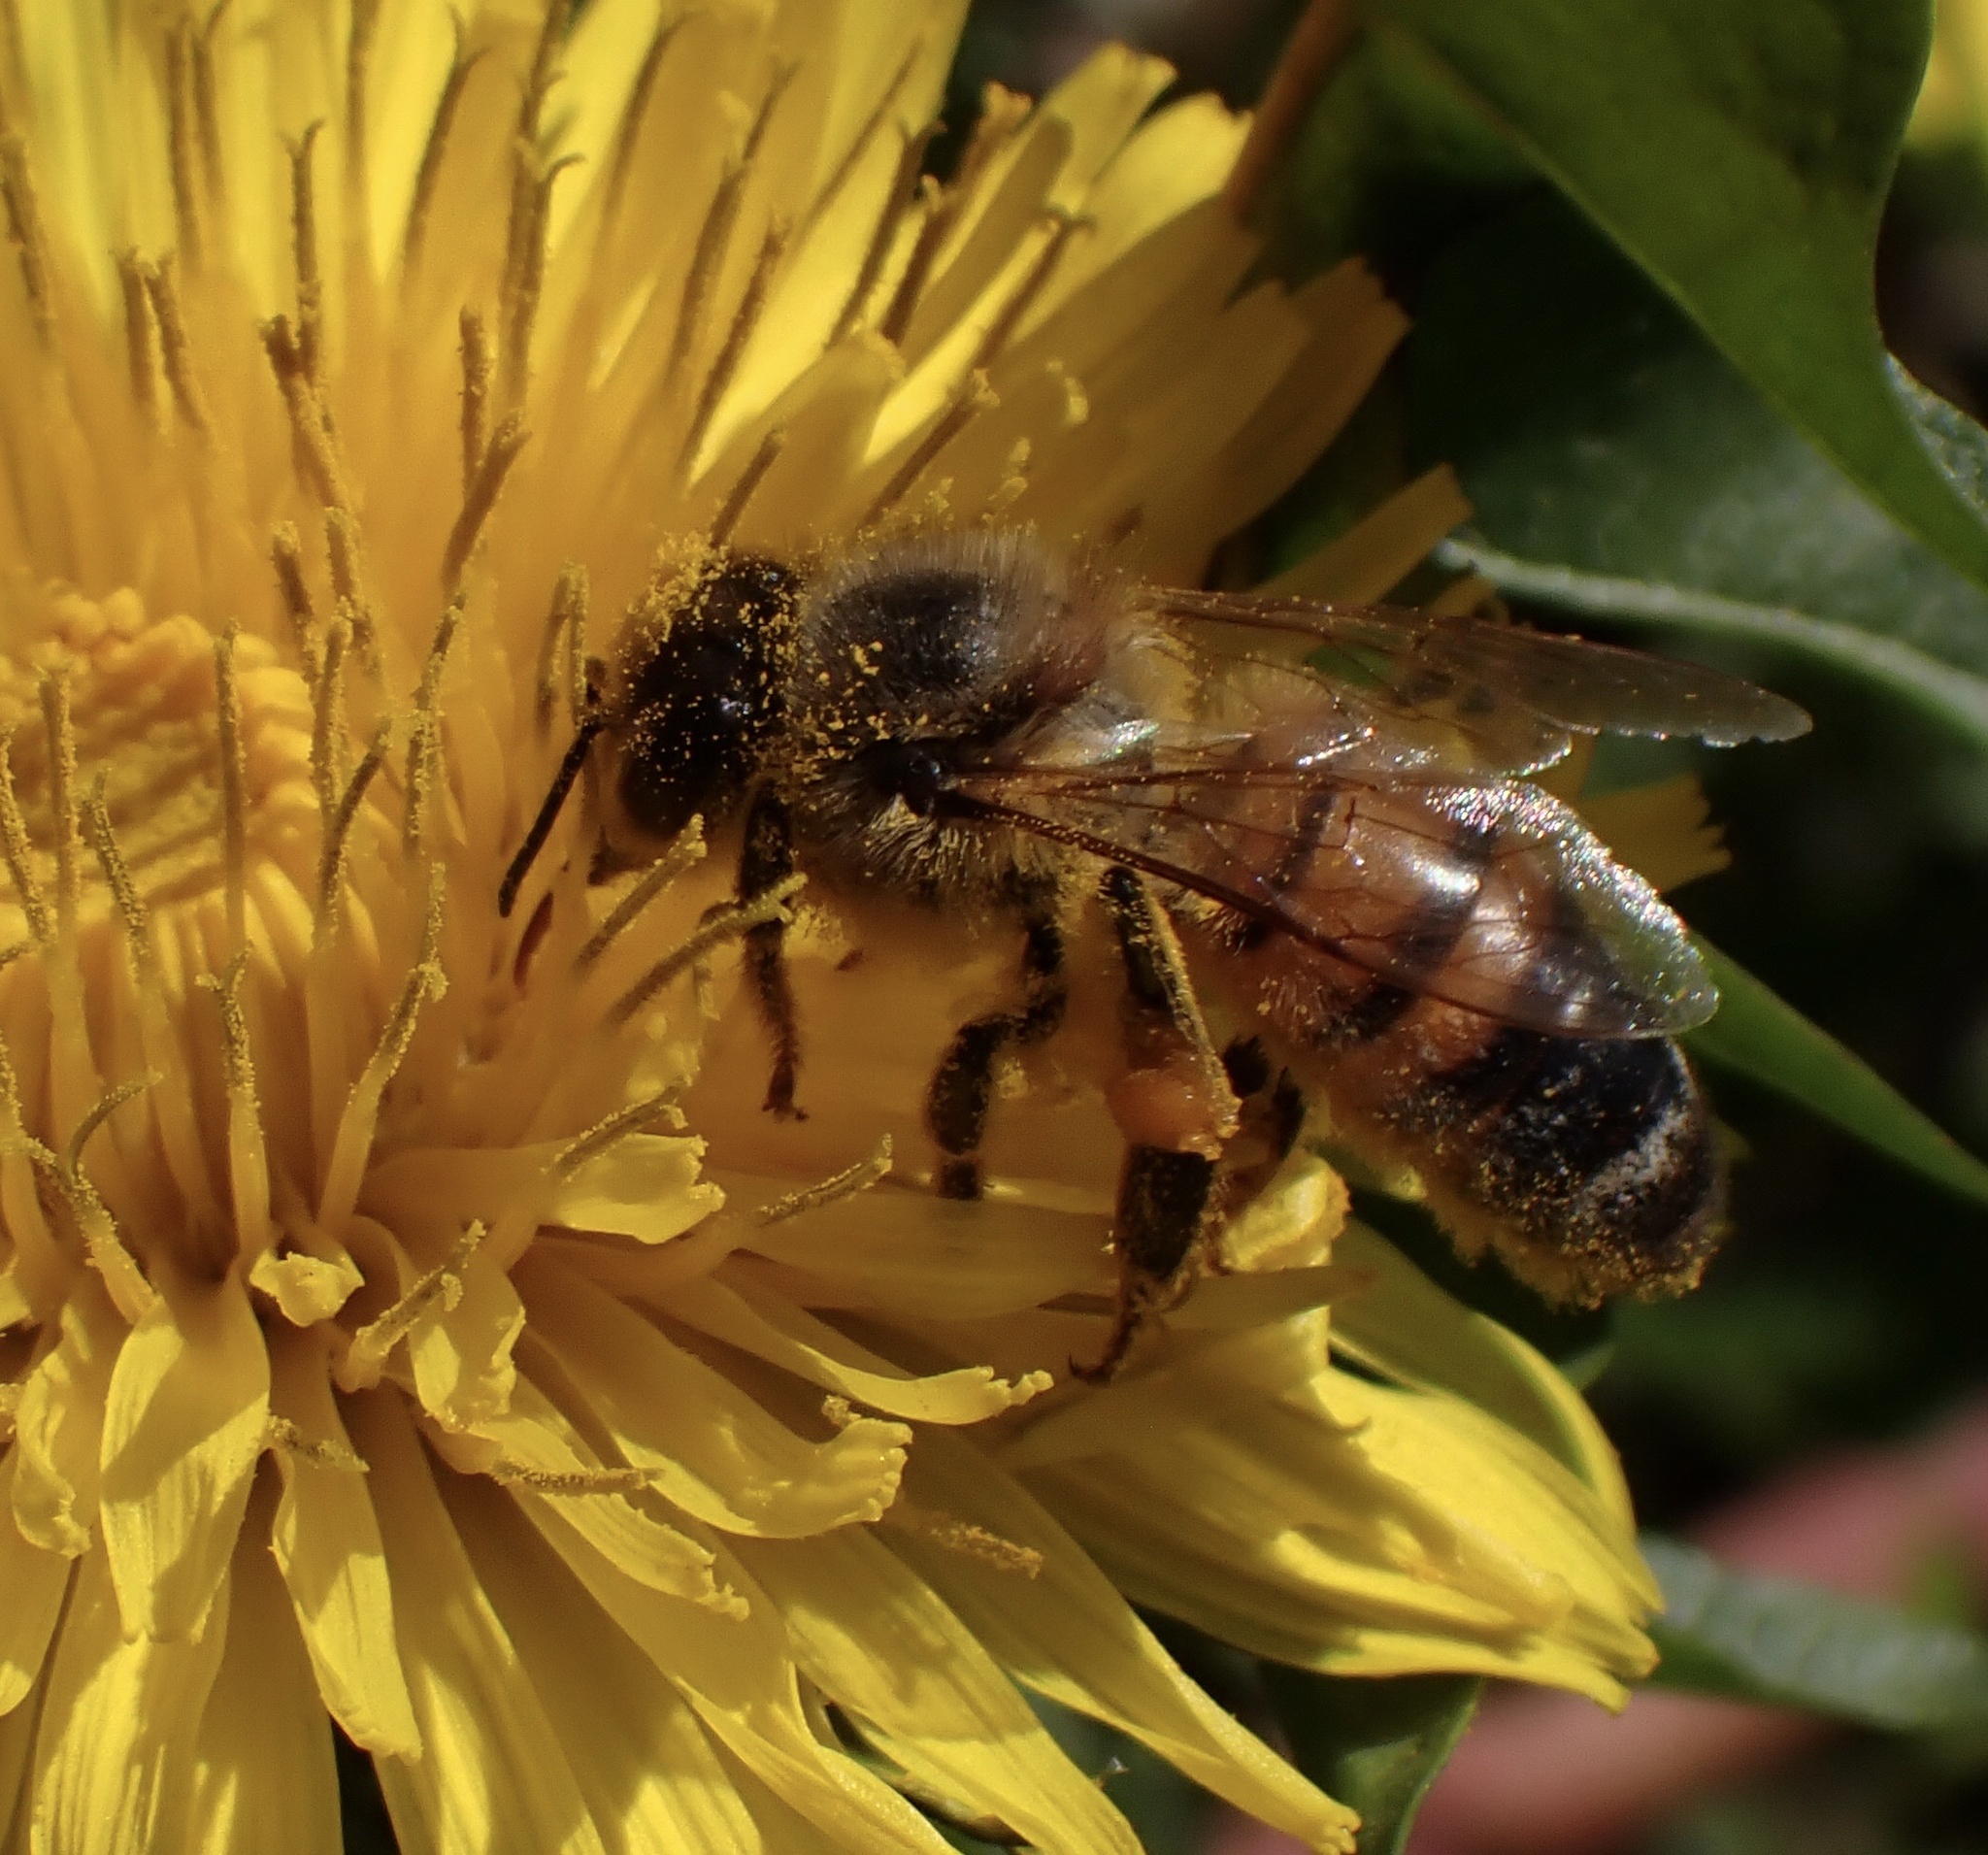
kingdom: Animalia
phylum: Arthropoda
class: Insecta
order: Hymenoptera
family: Apidae
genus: Apis
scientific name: Apis mellifera
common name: Honey bee
